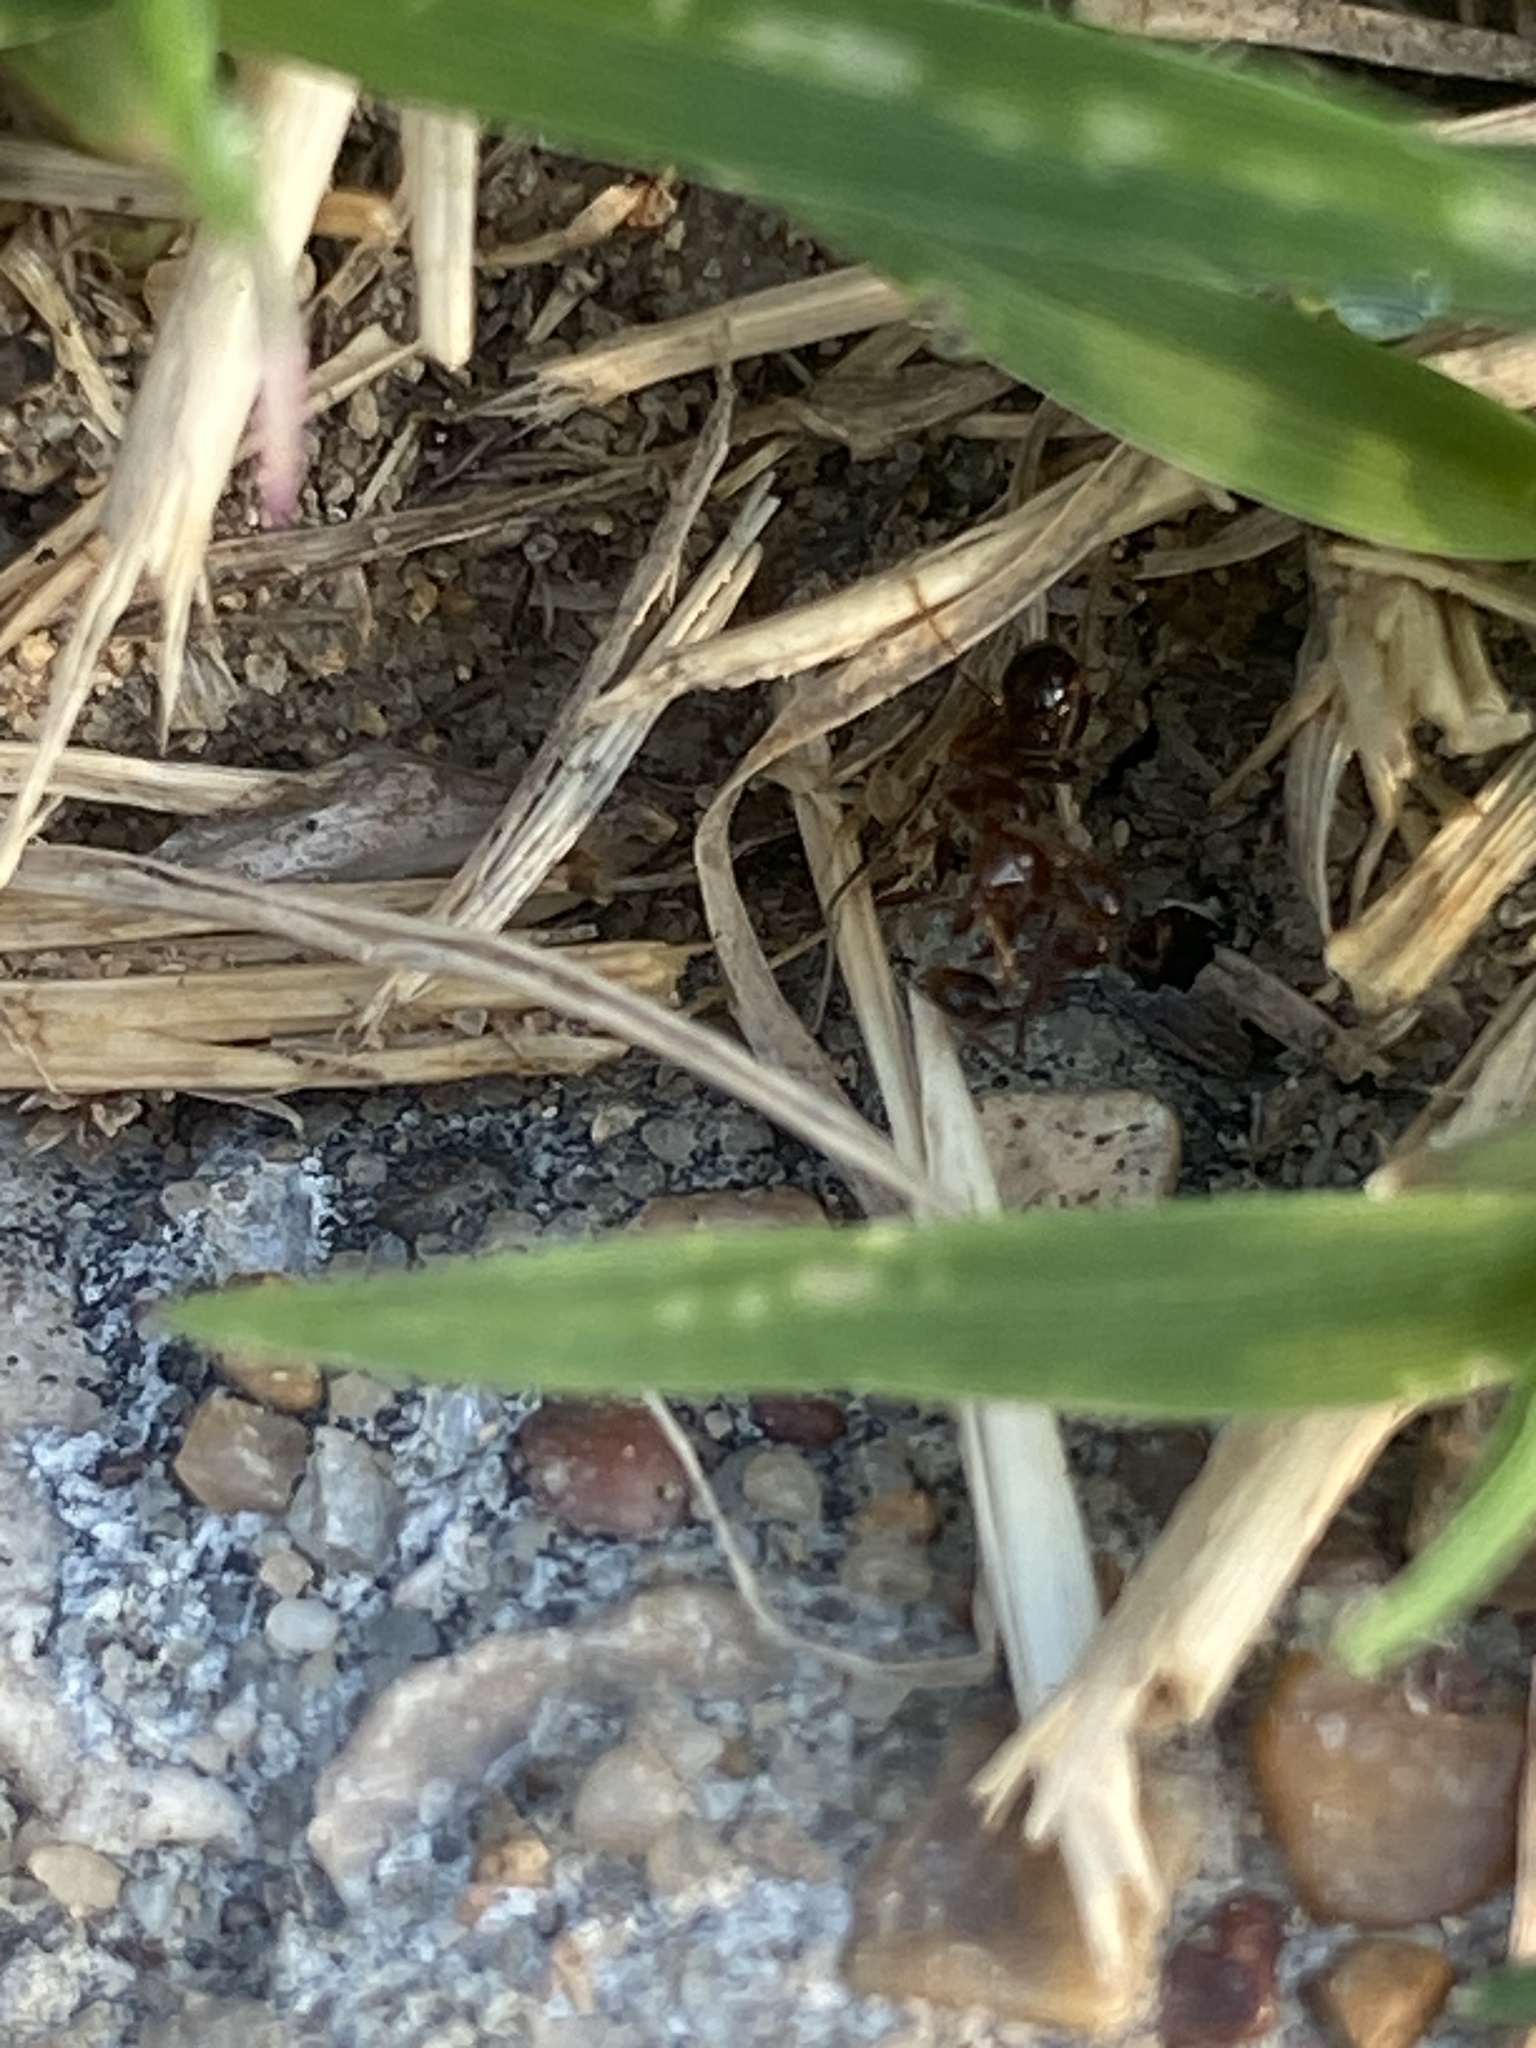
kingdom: Animalia
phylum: Arthropoda
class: Insecta
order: Hymenoptera
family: Formicidae
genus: Solenopsis
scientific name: Solenopsis invicta
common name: Red imported fire ant
